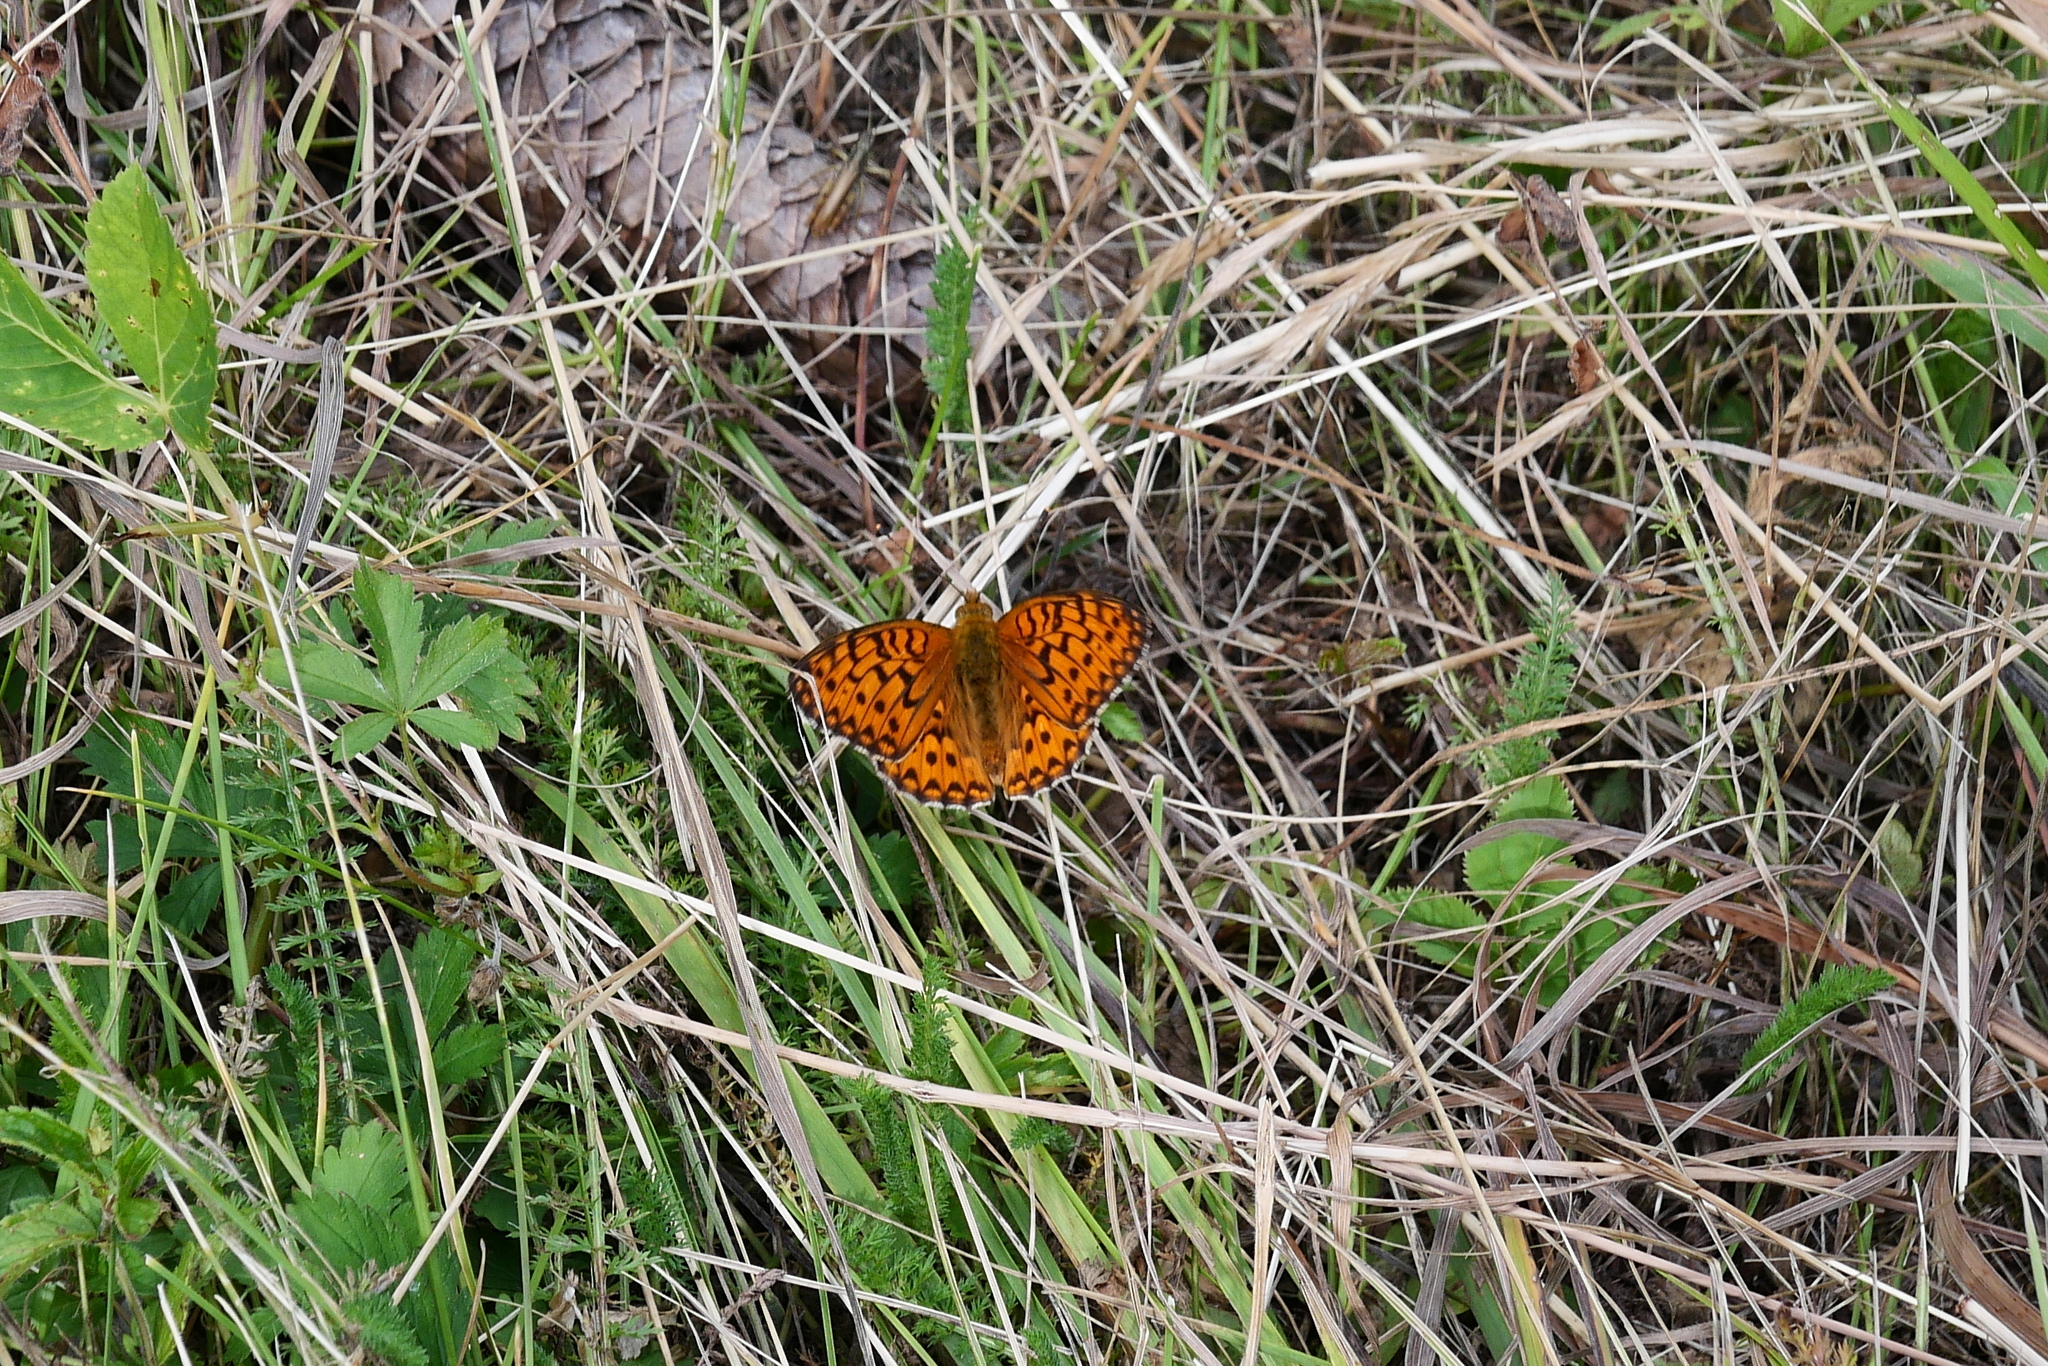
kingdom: Animalia
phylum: Arthropoda
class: Insecta
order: Lepidoptera
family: Nymphalidae
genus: Speyeria
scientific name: Speyeria aglaja
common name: Dark green fritillary
